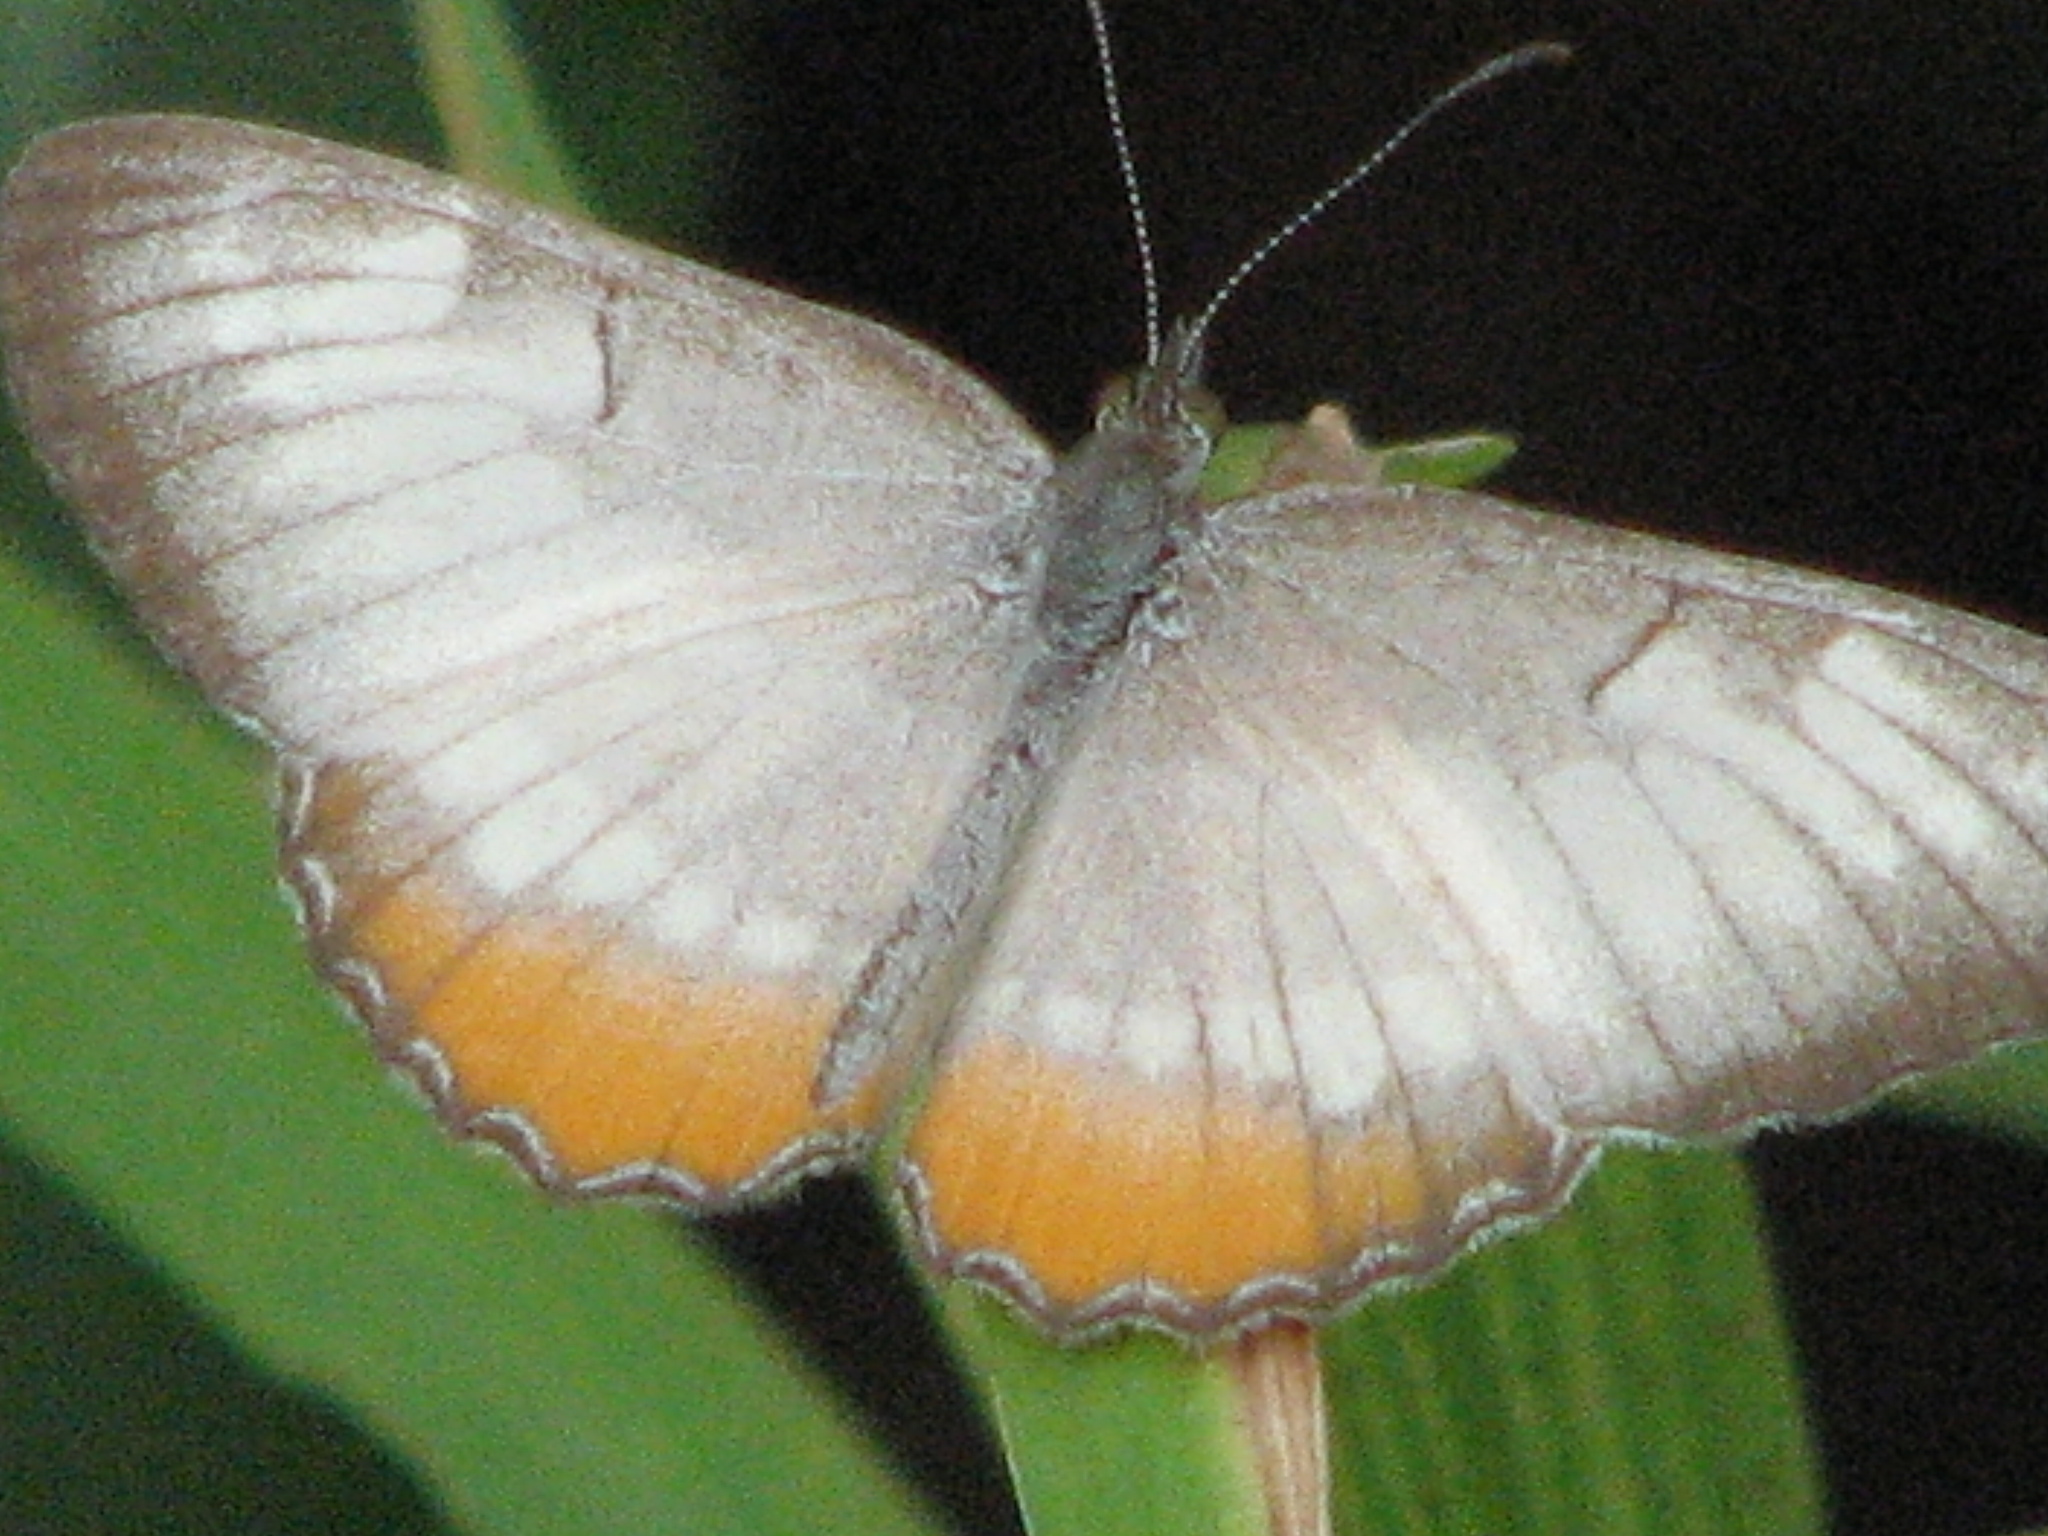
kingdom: Animalia
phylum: Arthropoda
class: Insecta
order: Lepidoptera
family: Nymphalidae
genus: Mestra
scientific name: Mestra amymone
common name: Common mestra
